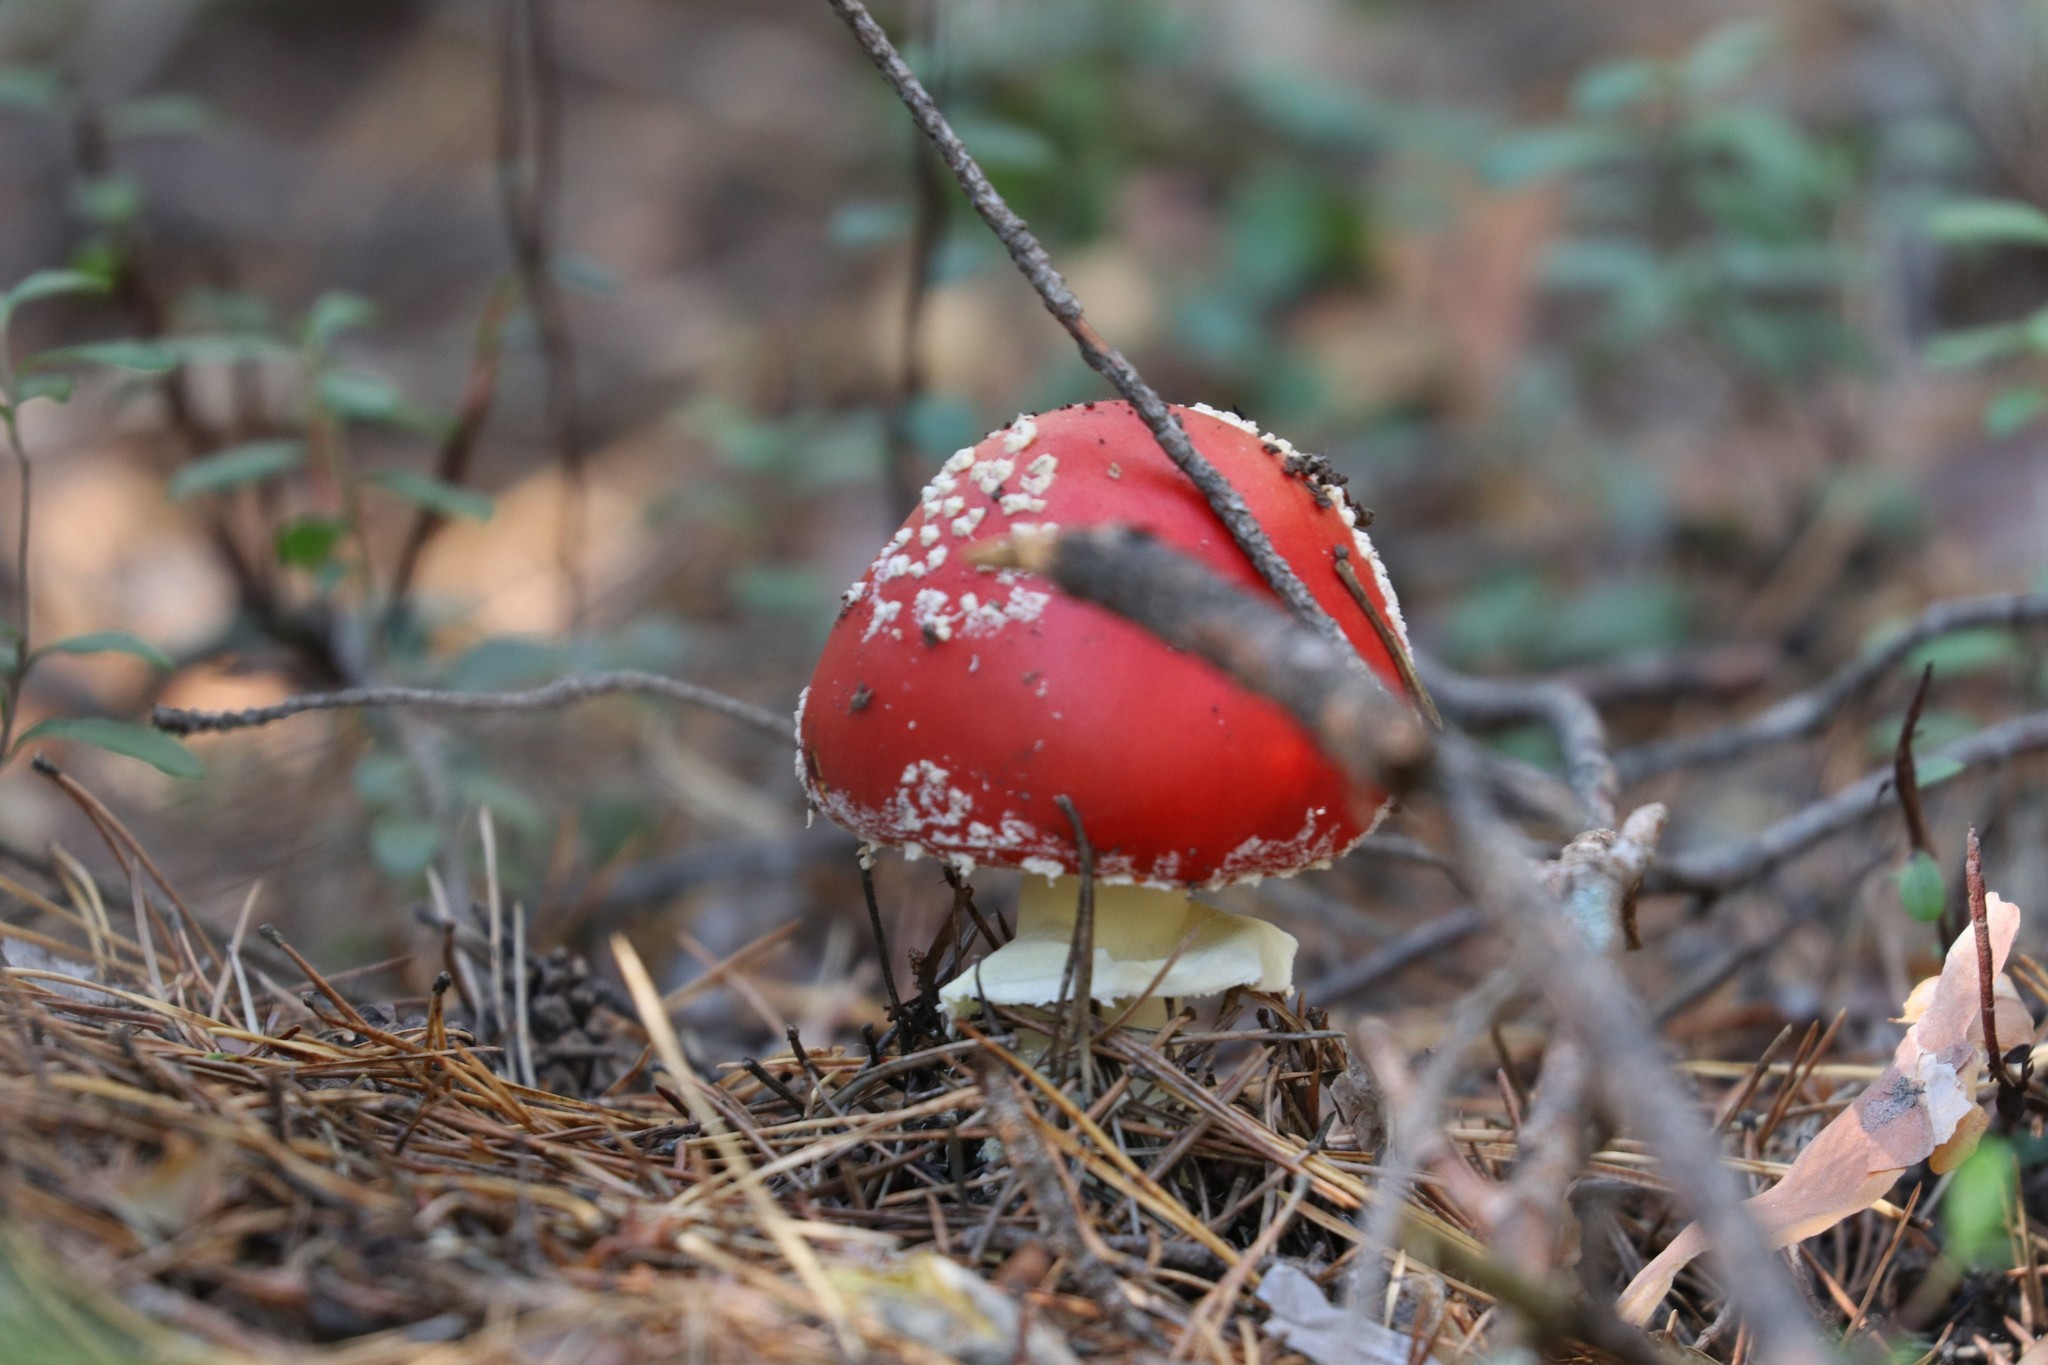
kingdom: Fungi
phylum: Basidiomycota
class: Agaricomycetes
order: Agaricales
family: Amanitaceae
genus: Amanita
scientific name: Amanita muscaria
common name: Fly agaric
